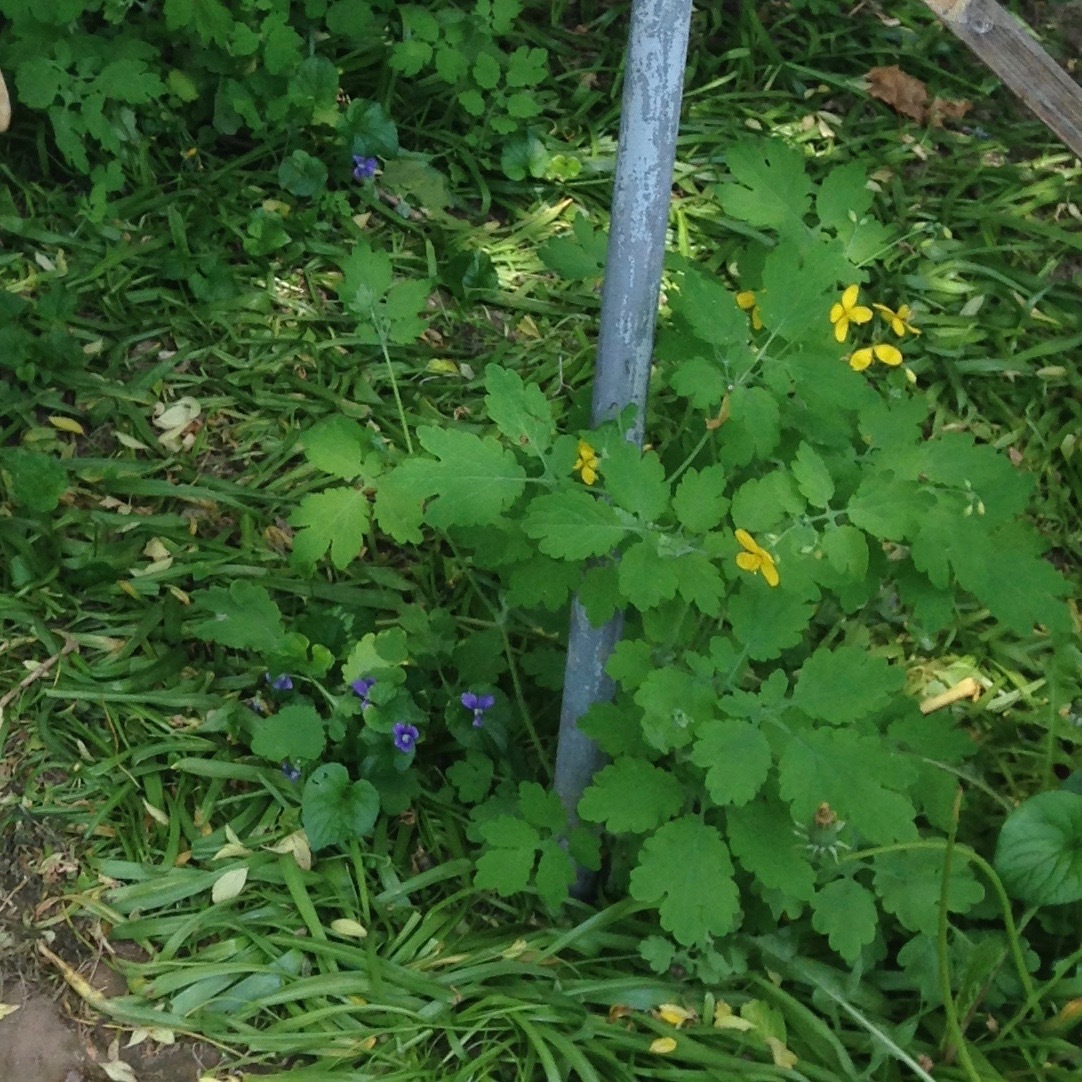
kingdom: Plantae
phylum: Tracheophyta
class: Magnoliopsida
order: Ranunculales
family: Papaveraceae
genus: Chelidonium
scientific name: Chelidonium majus
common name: Greater celandine
